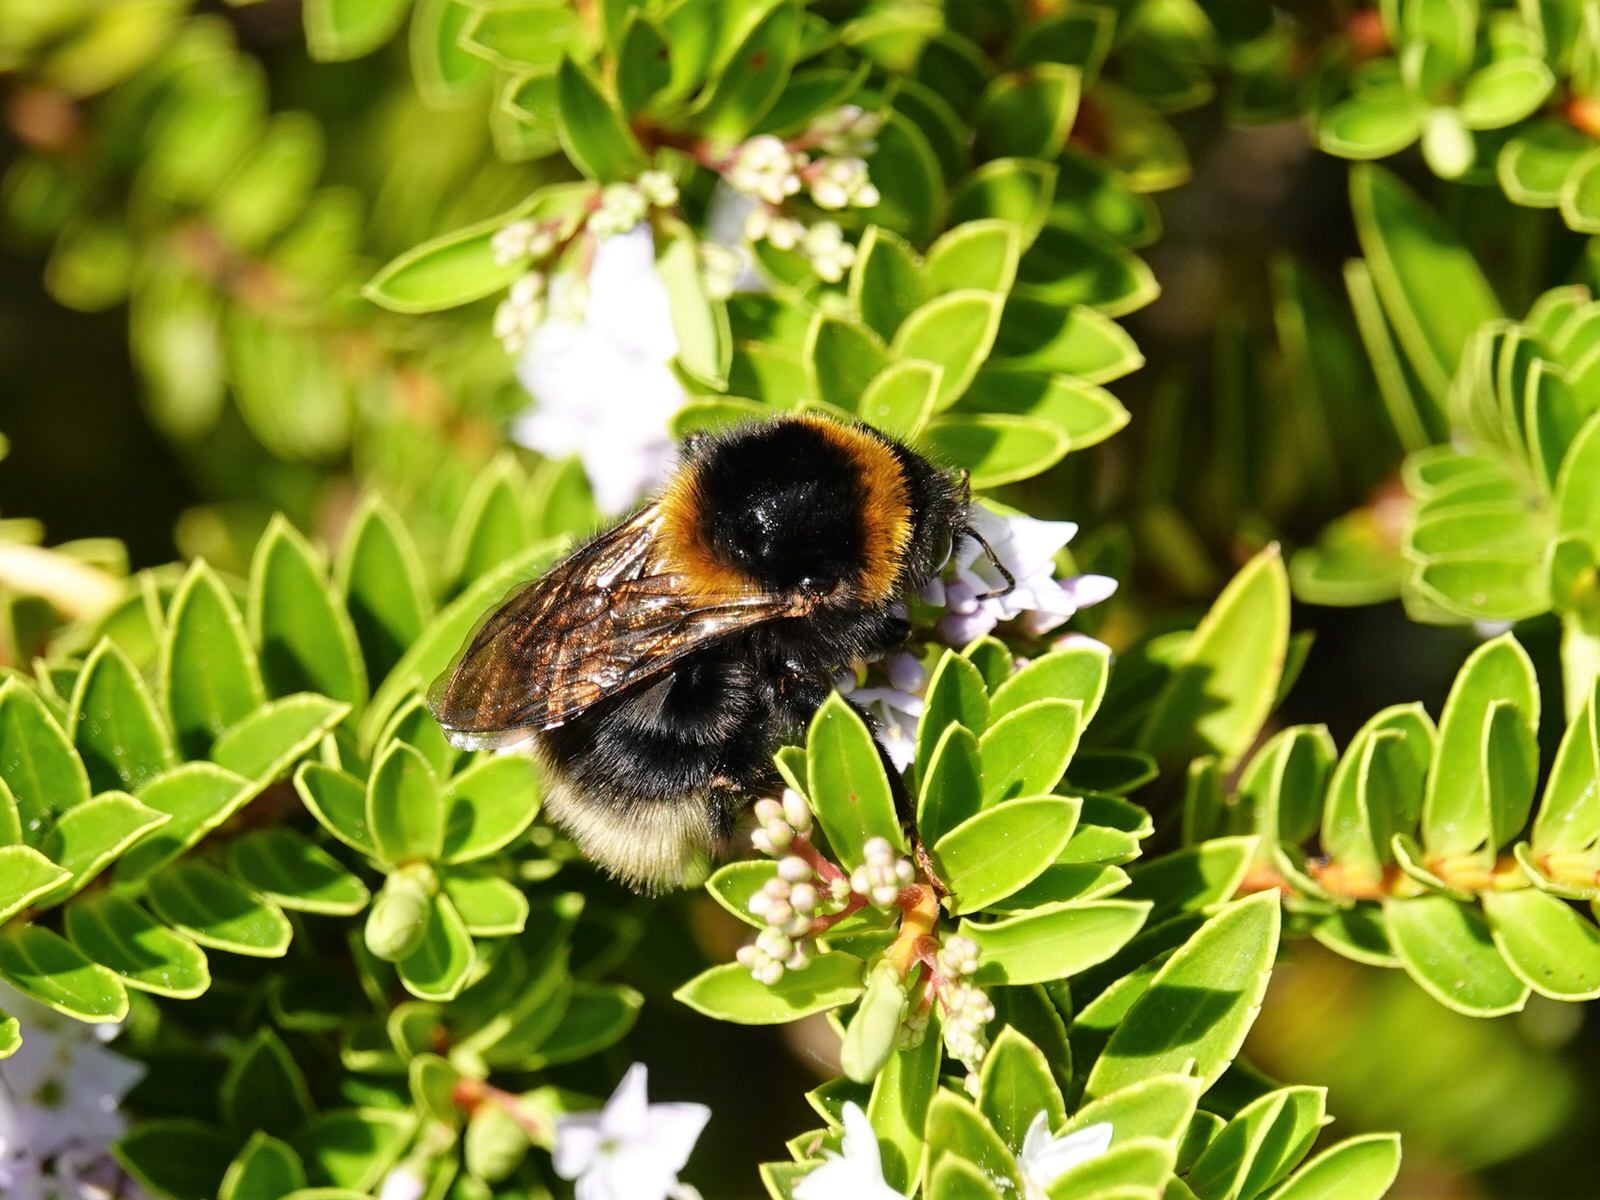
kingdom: Animalia
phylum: Arthropoda
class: Insecta
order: Hymenoptera
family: Apidae
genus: Megabombus
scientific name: Megabombus
